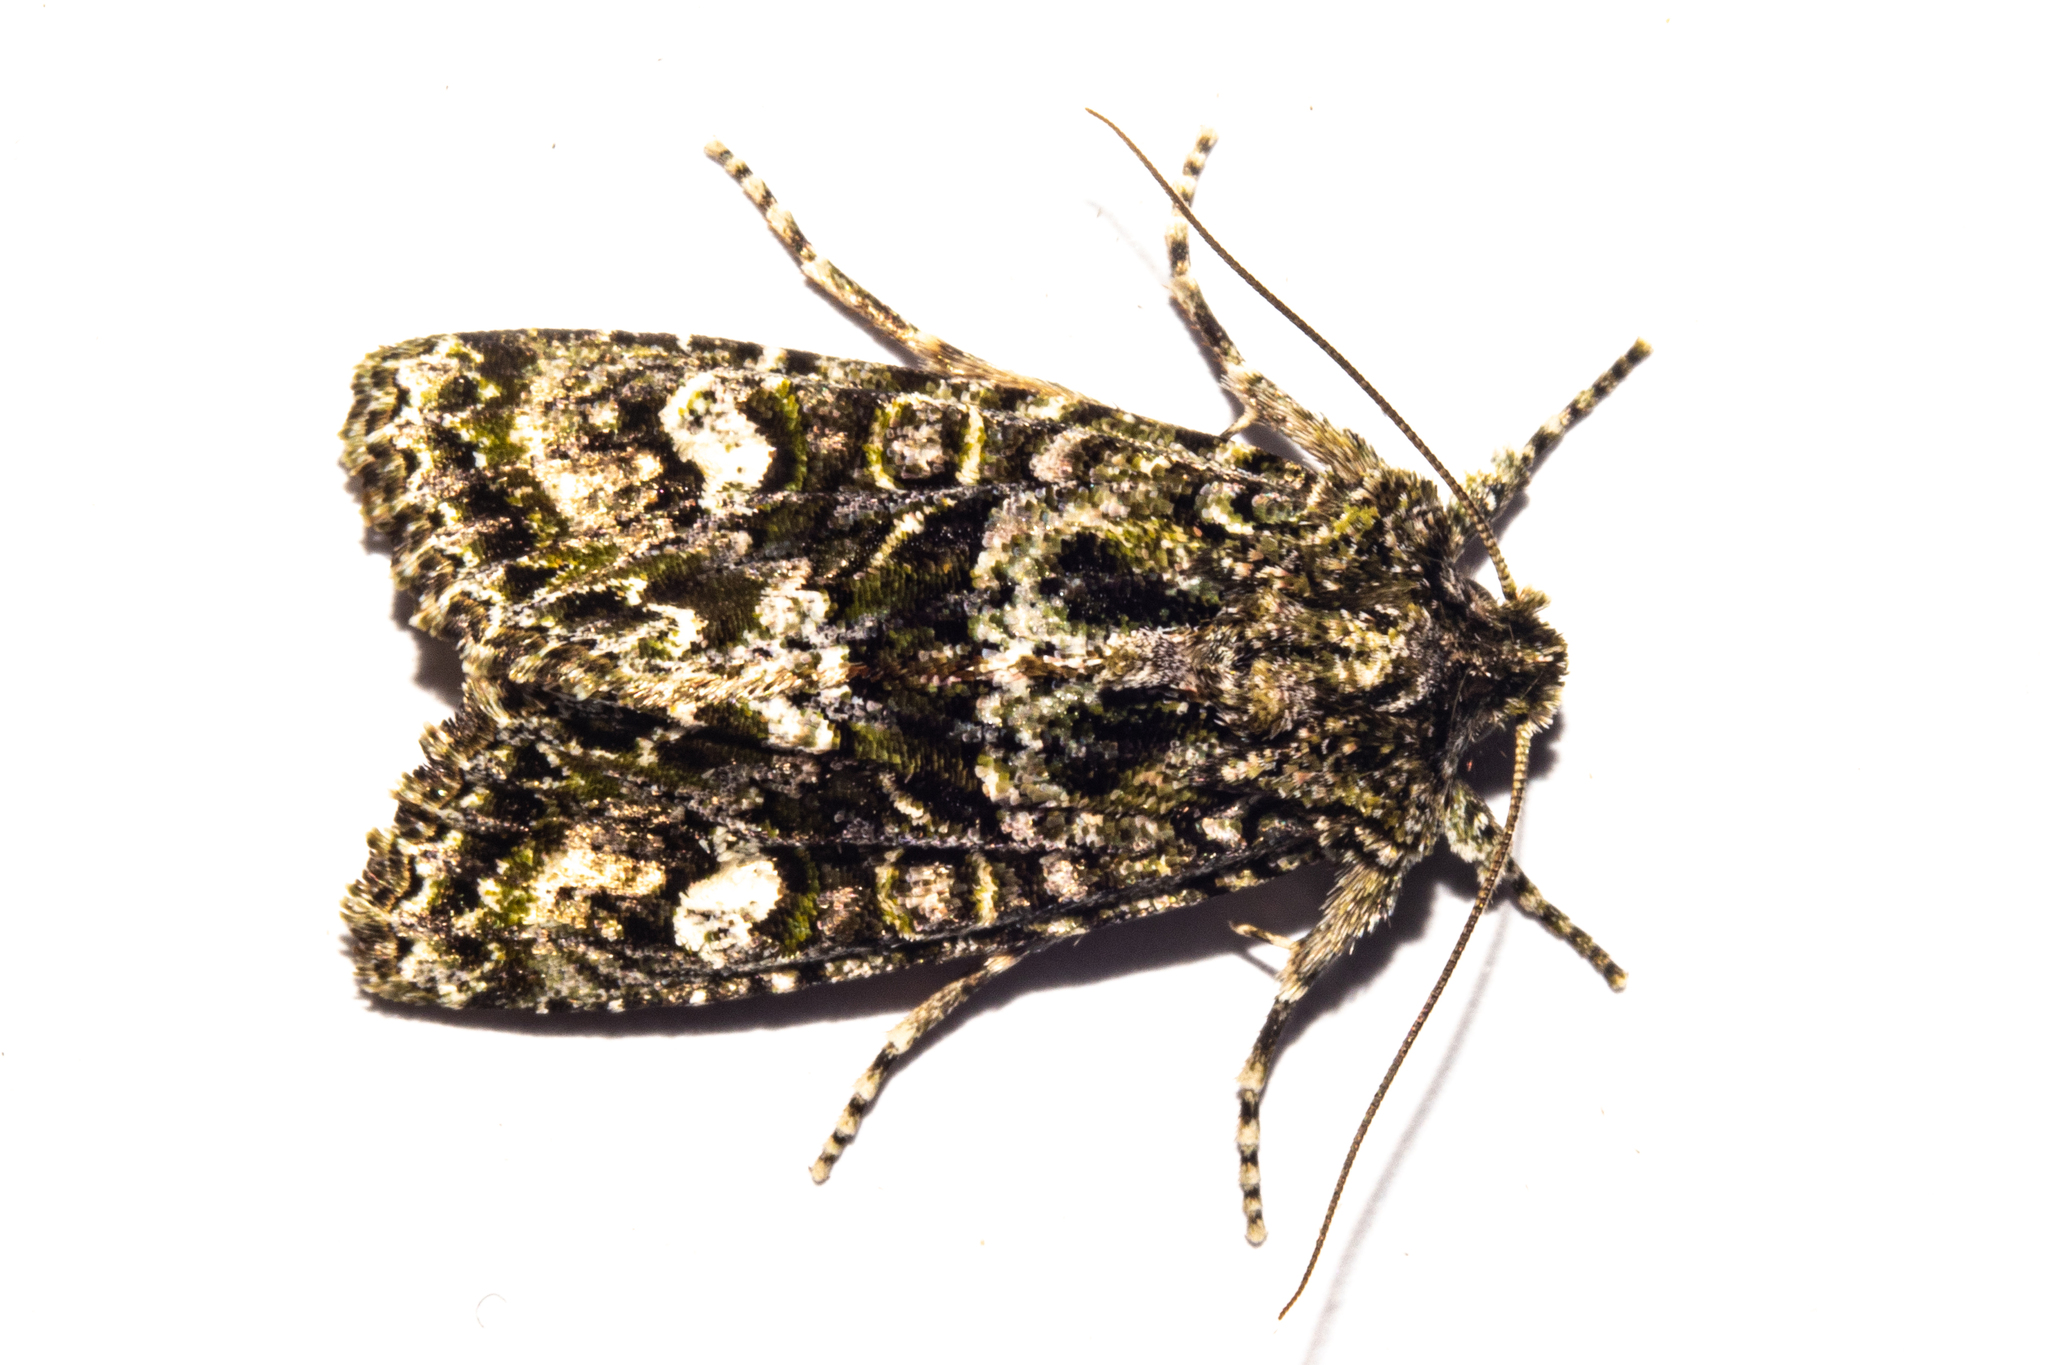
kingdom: Animalia
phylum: Arthropoda
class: Insecta
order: Lepidoptera
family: Noctuidae
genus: Ichneutica
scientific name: Ichneutica
